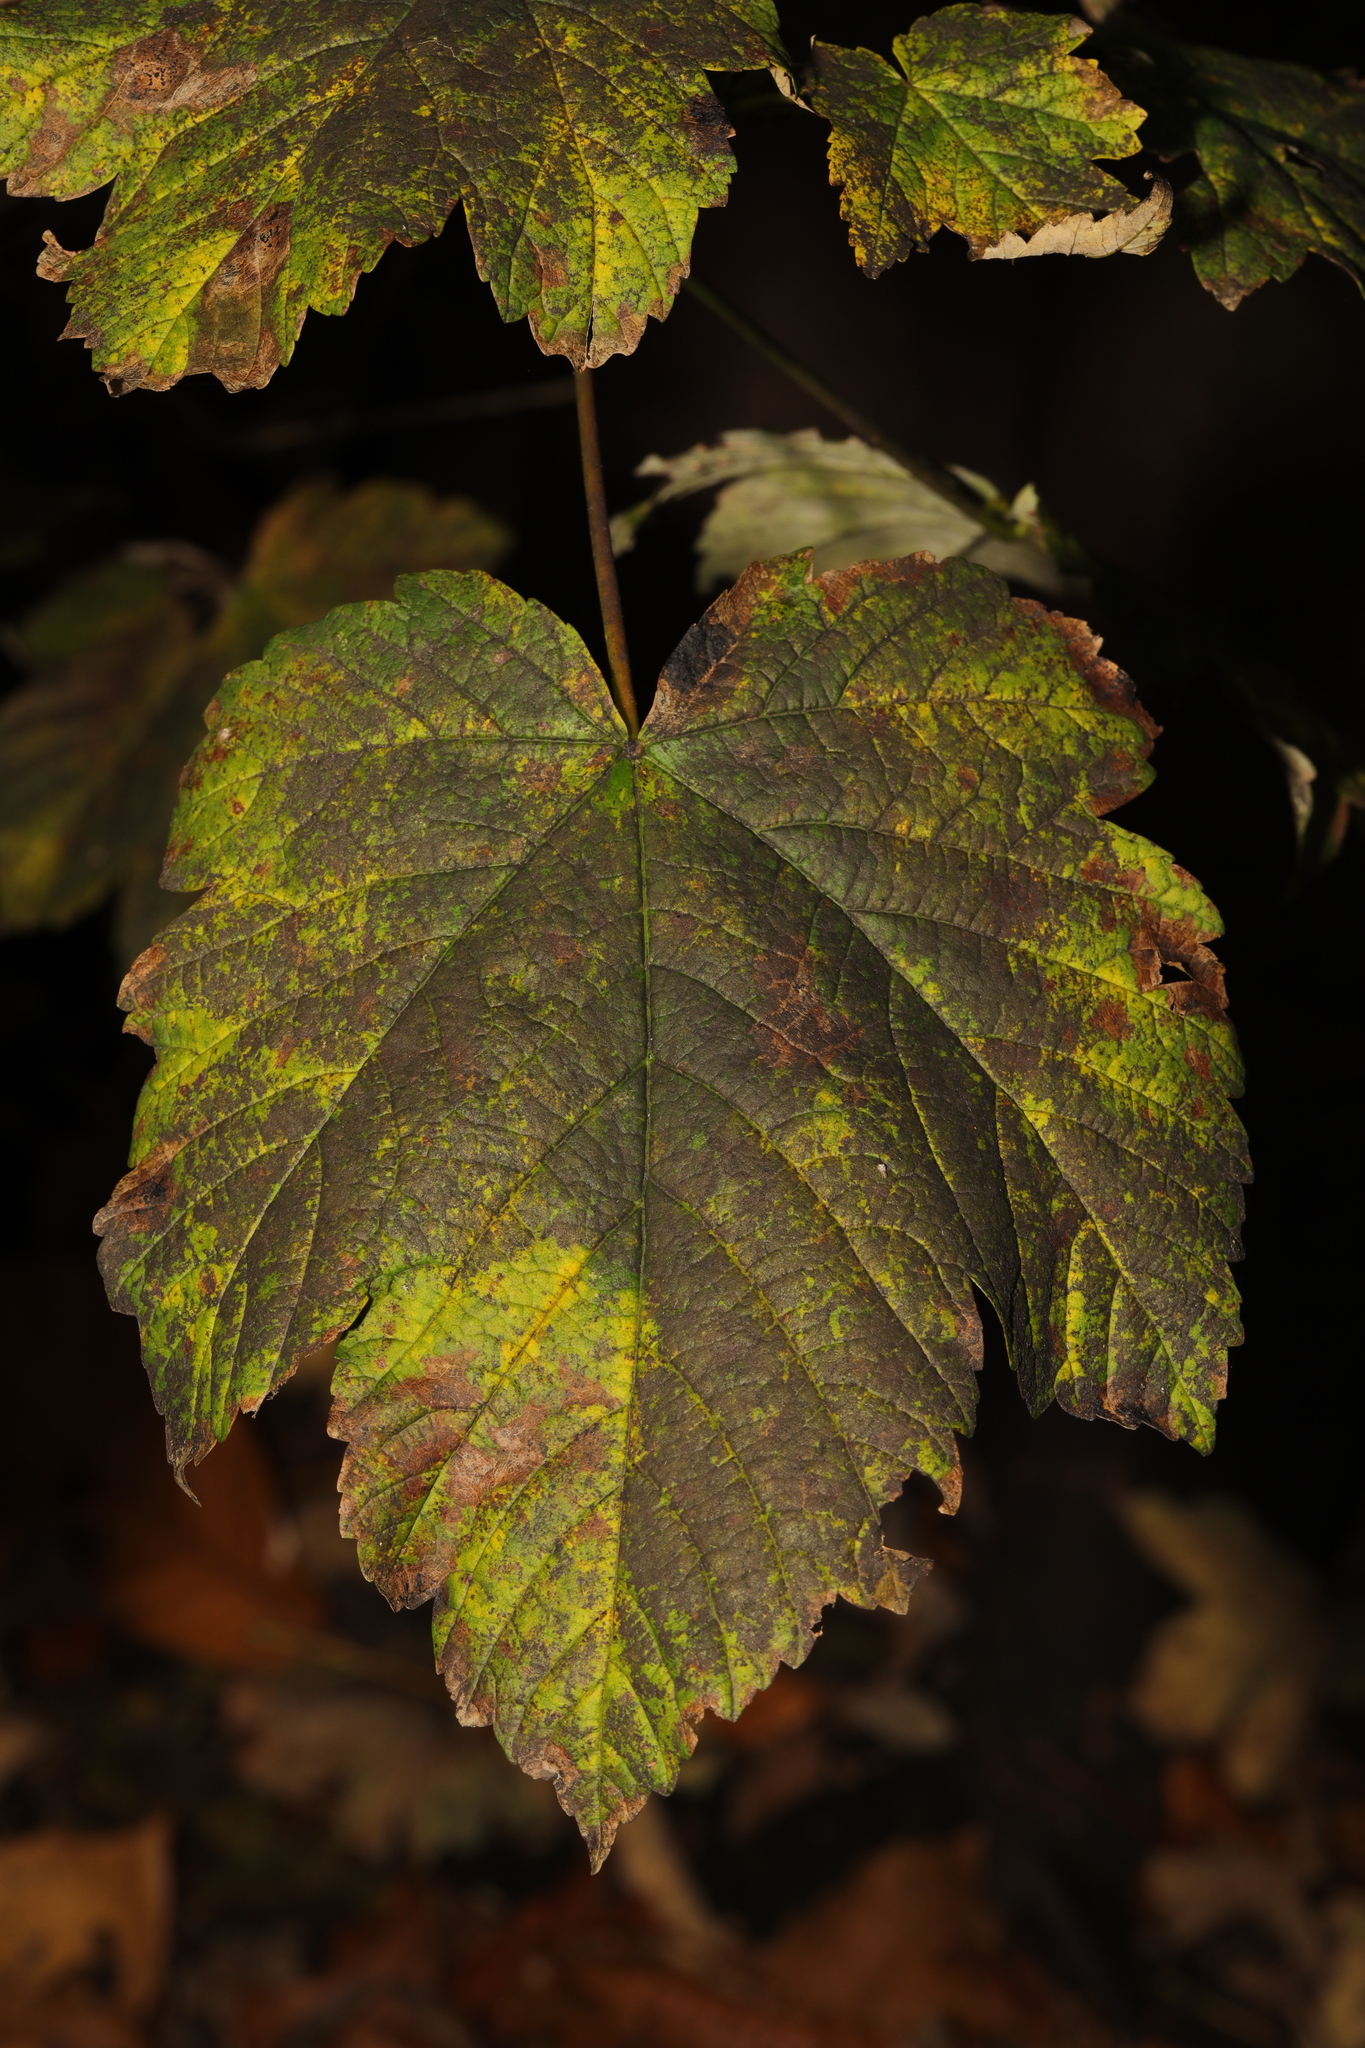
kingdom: Plantae
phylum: Tracheophyta
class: Magnoliopsida
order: Sapindales
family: Sapindaceae
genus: Acer
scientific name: Acer pseudoplatanus
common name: Sycamore
